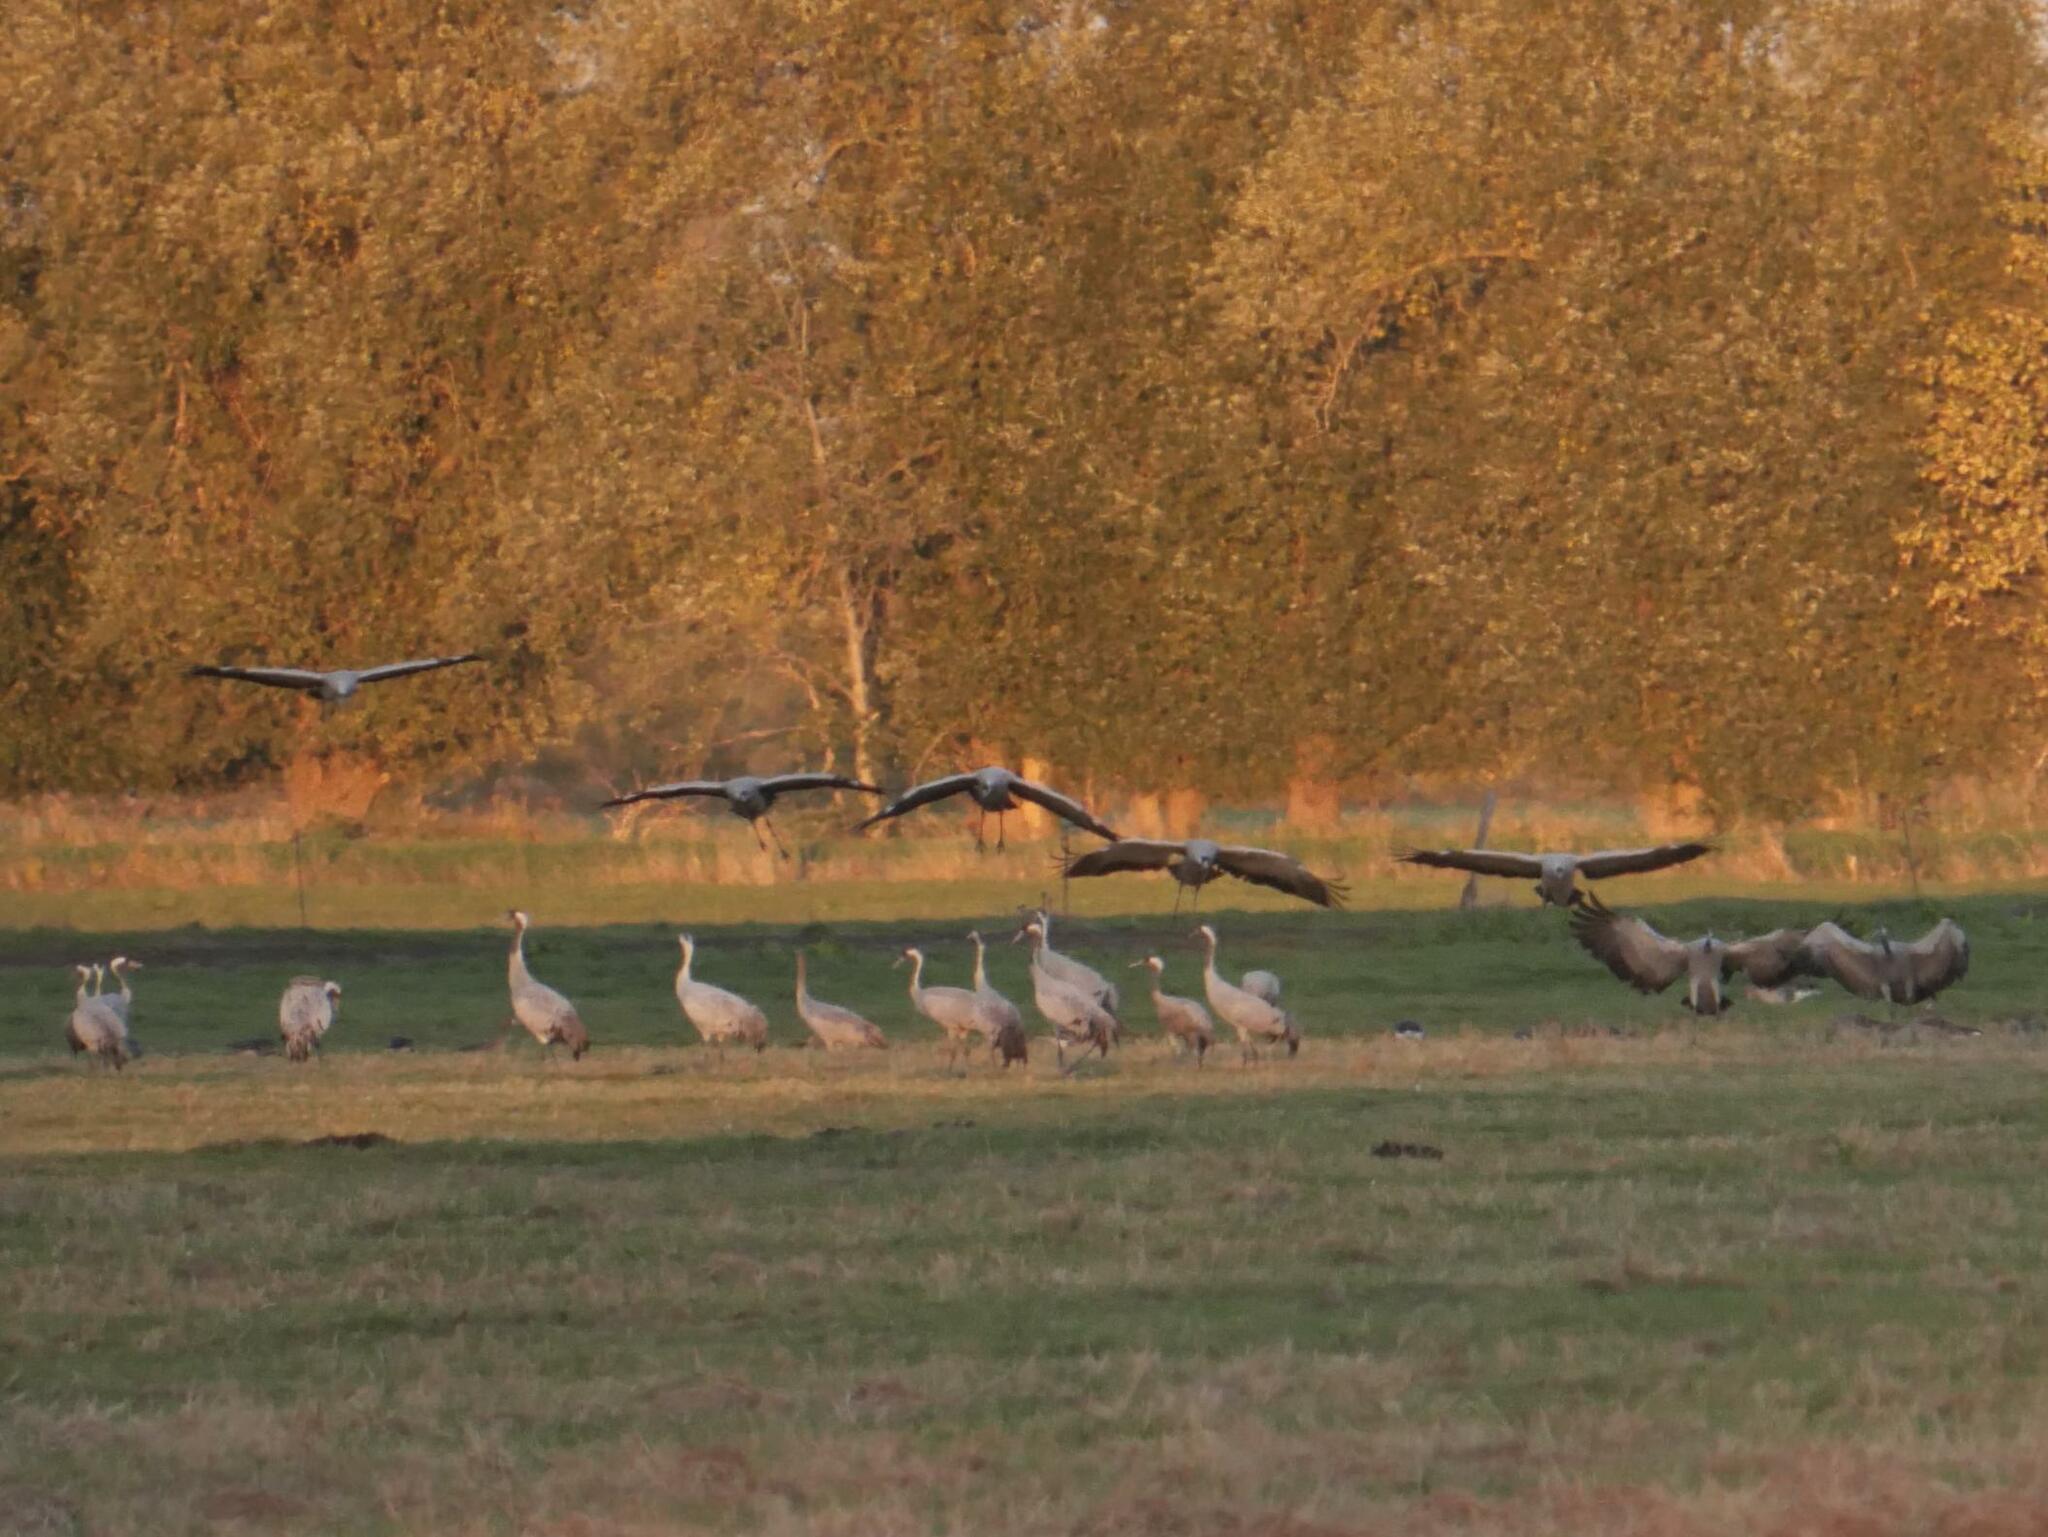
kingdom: Animalia
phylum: Chordata
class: Aves
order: Gruiformes
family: Gruidae
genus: Grus
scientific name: Grus grus
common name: Common crane
